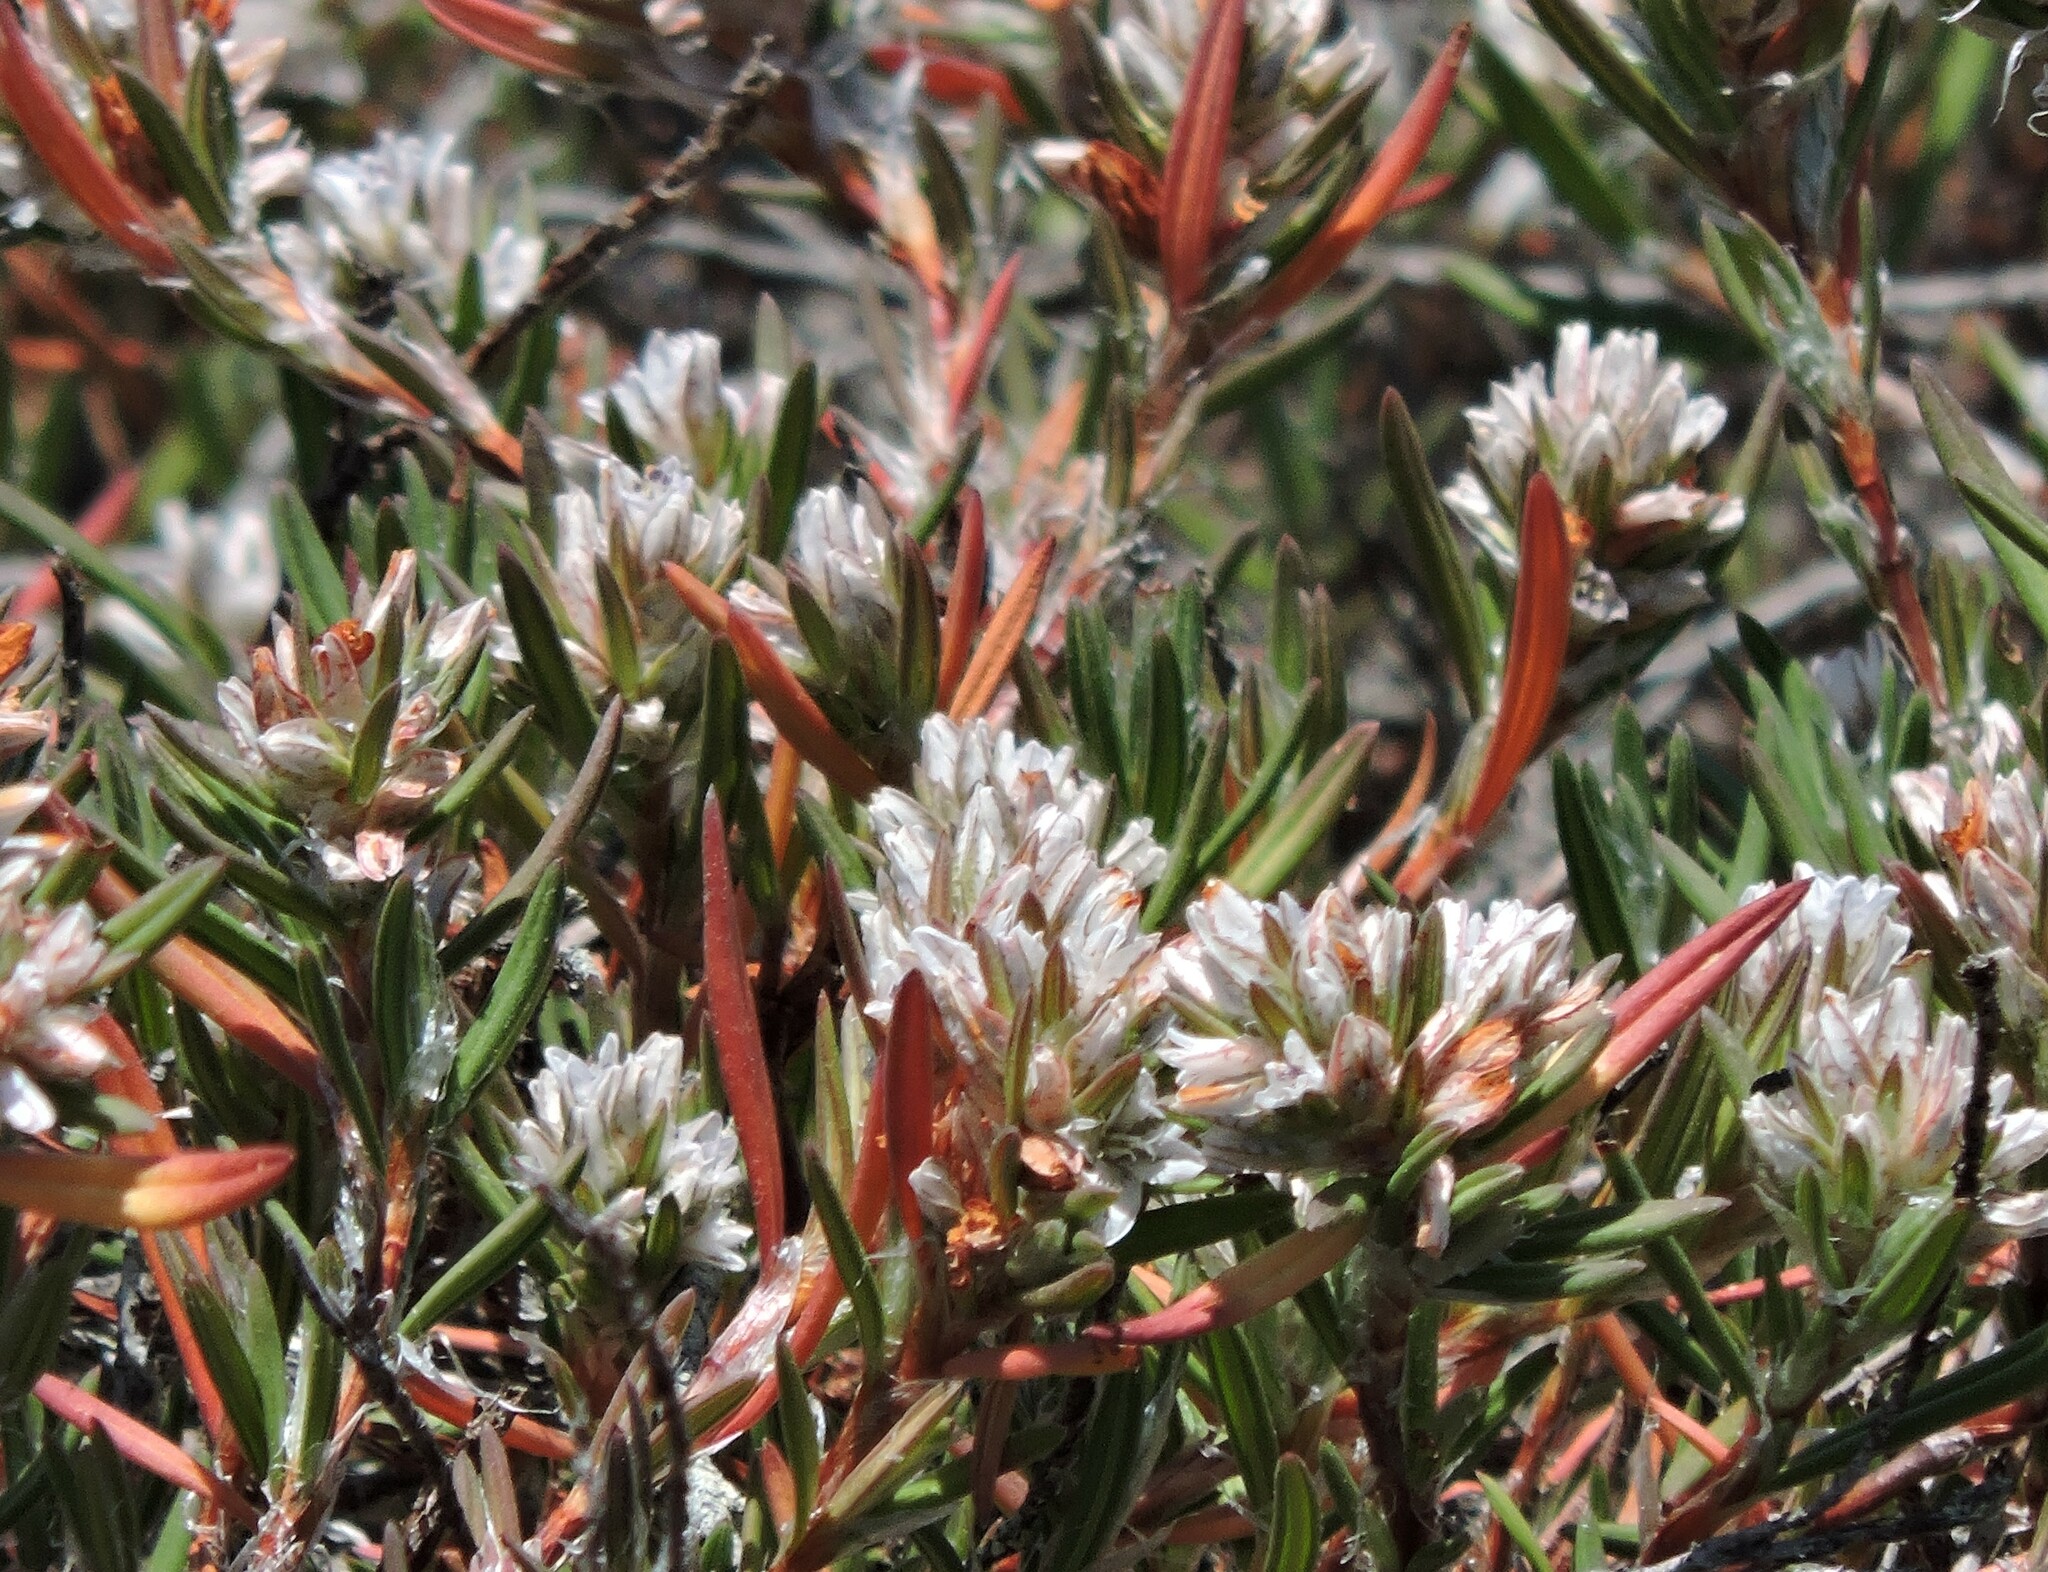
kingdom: Plantae
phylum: Tracheophyta
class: Magnoliopsida
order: Caryophyllales
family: Polygonaceae
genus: Polygonum
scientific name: Polygonum paronychia
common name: Dune knotweed
